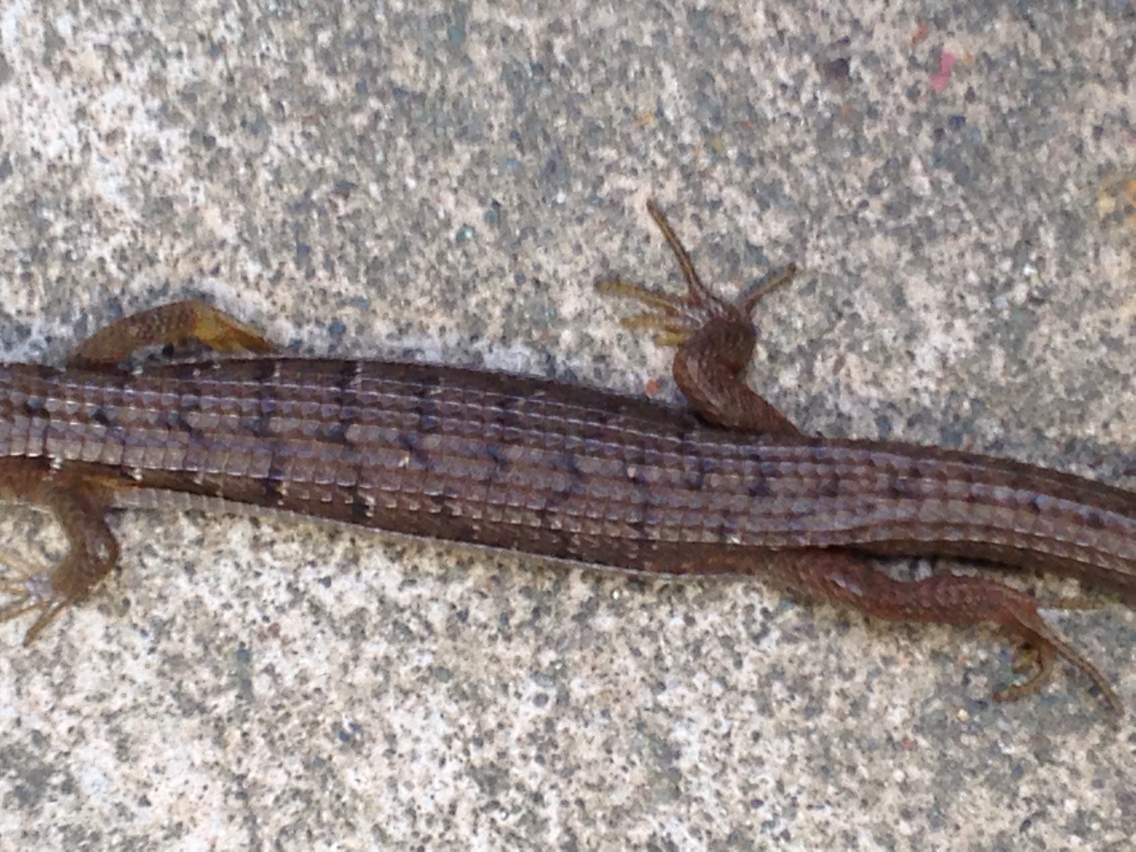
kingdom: Animalia
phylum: Chordata
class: Squamata
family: Anguidae
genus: Elgaria
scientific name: Elgaria multicarinata
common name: Southern alligator lizard
